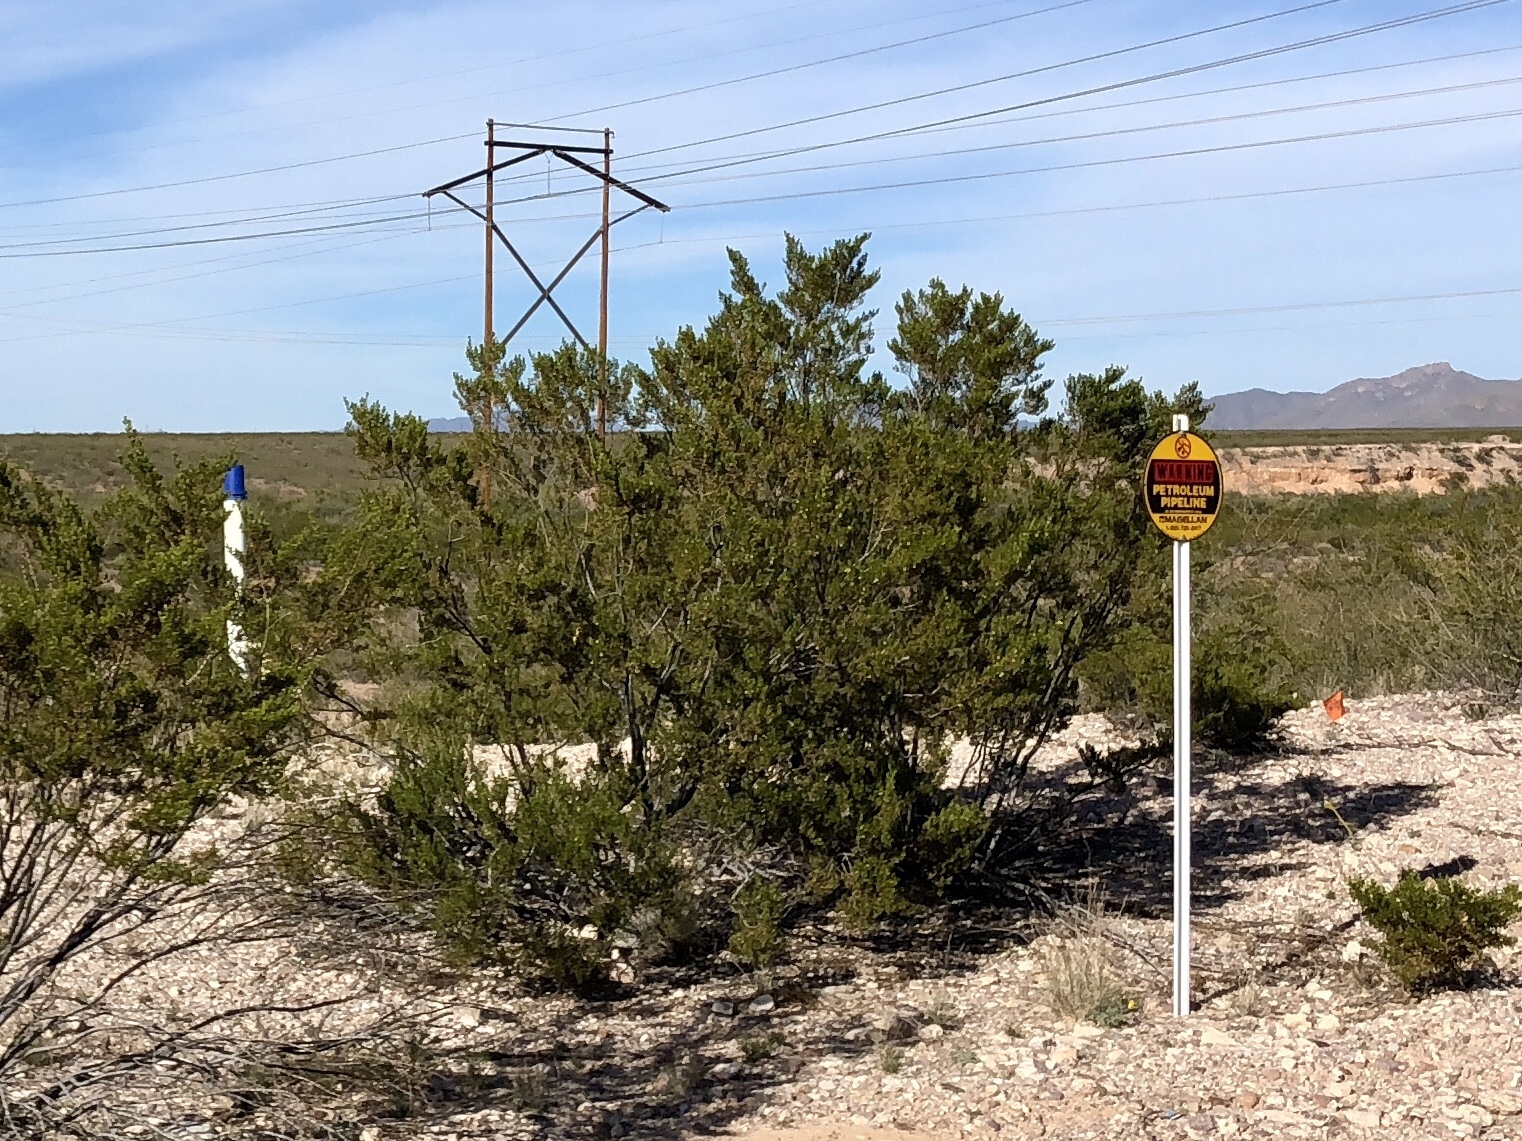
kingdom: Plantae
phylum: Tracheophyta
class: Magnoliopsida
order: Zygophyllales
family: Zygophyllaceae
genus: Larrea
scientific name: Larrea tridentata
